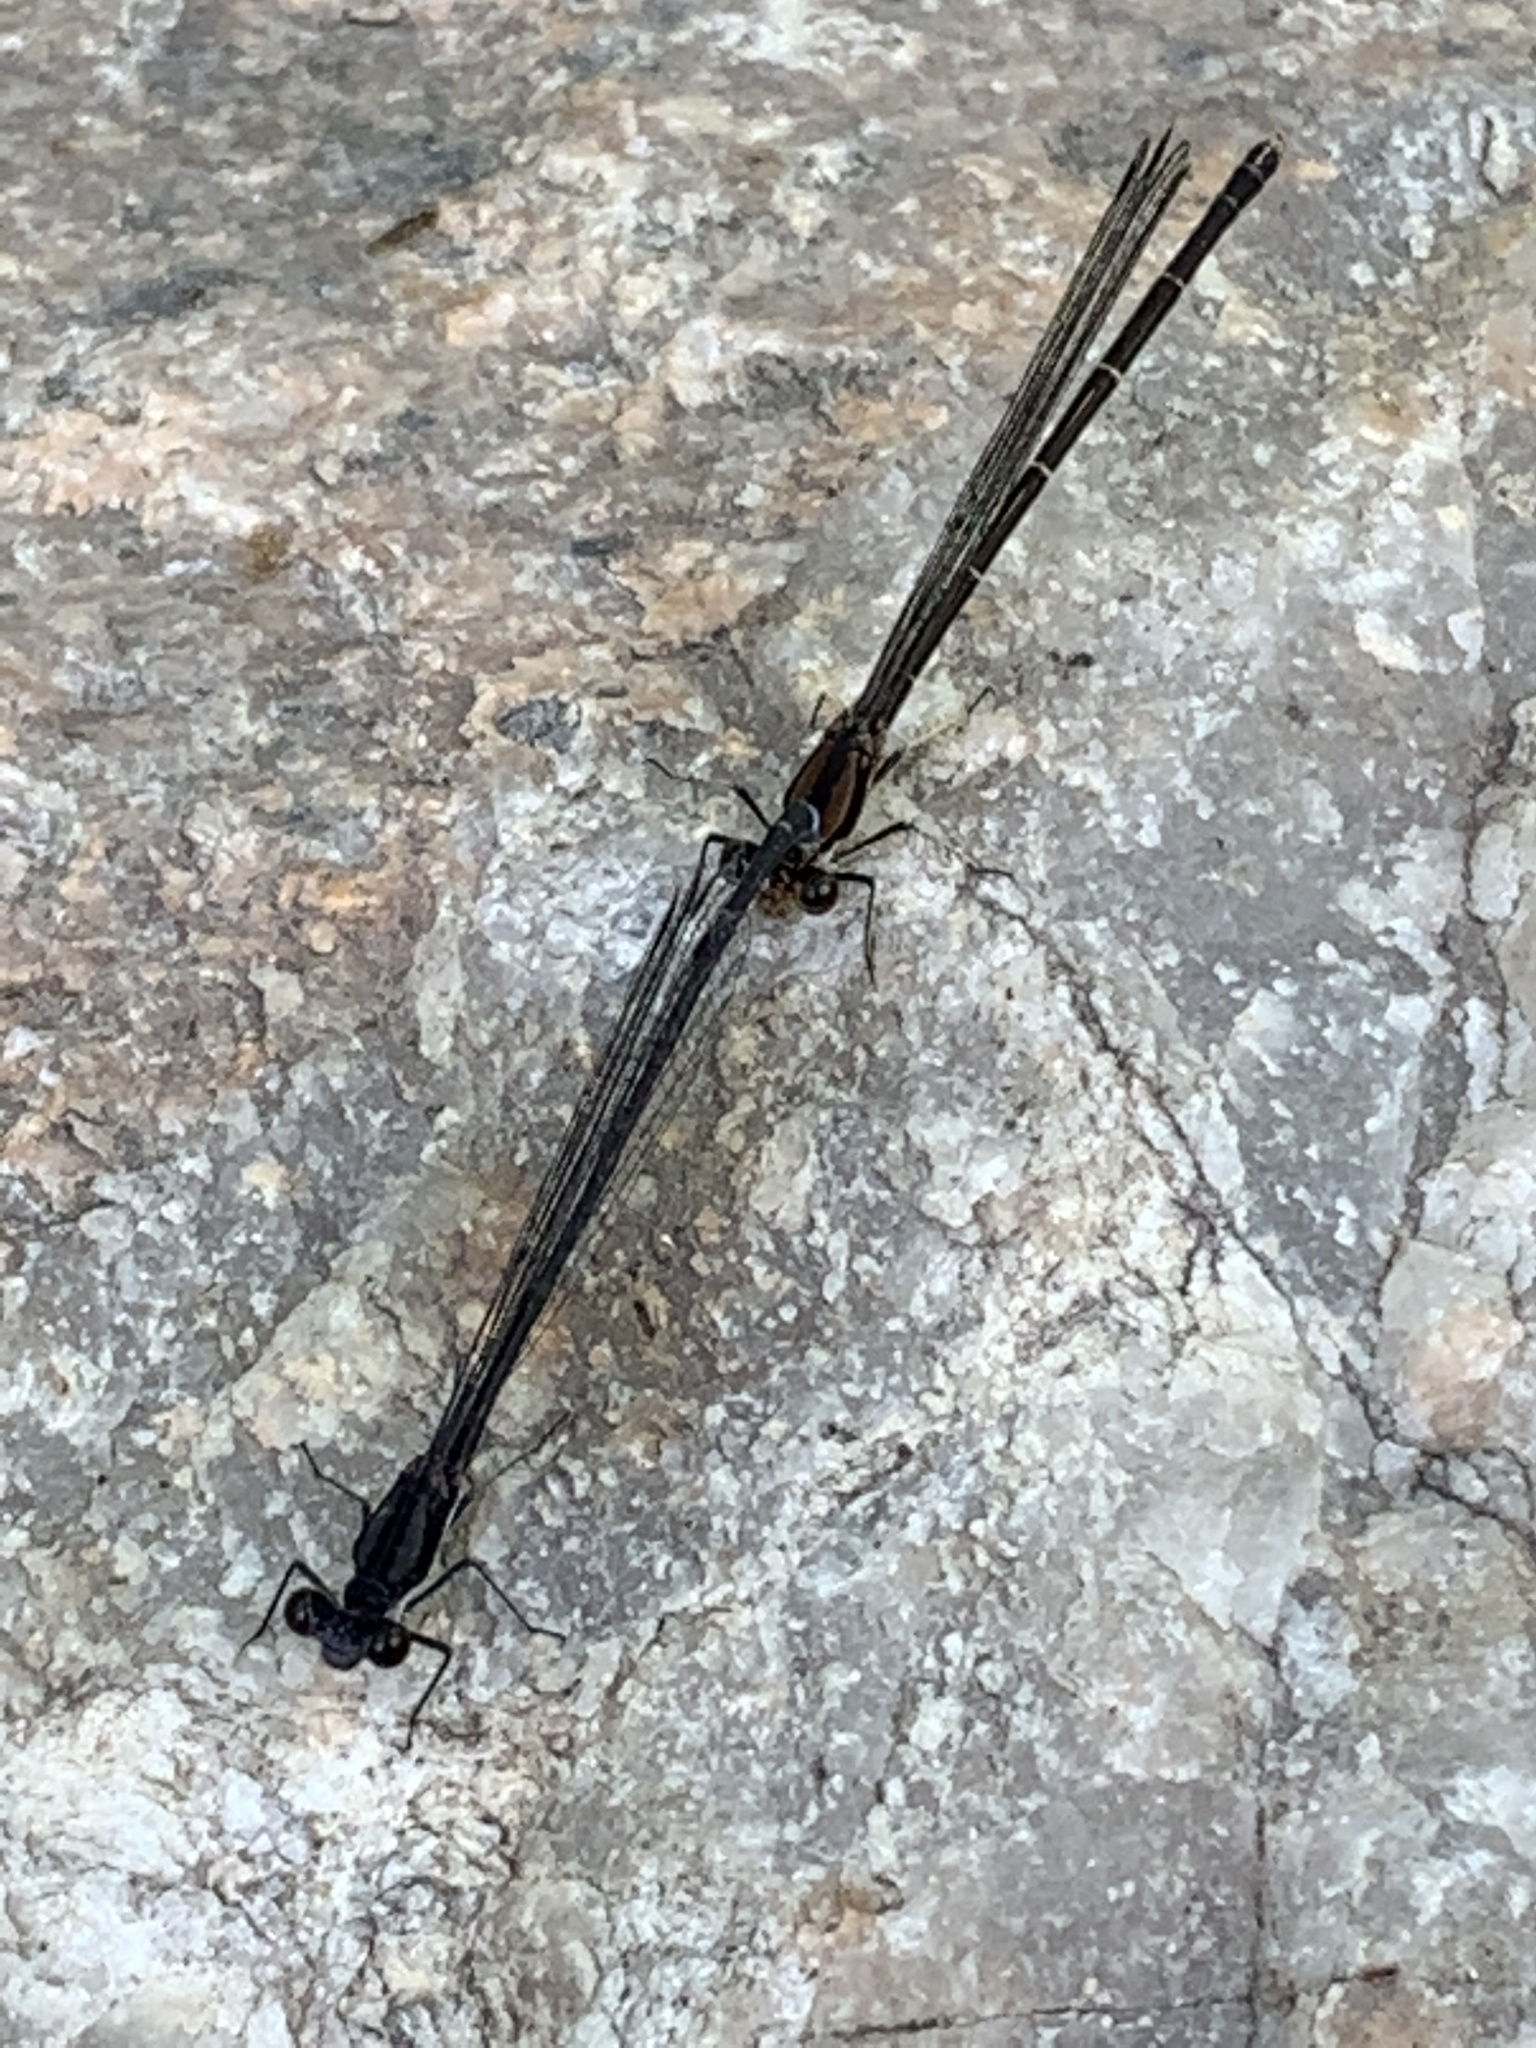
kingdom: Animalia
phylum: Arthropoda
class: Insecta
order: Odonata
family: Coenagrionidae
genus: Argia
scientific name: Argia tibialis
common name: Blue-tipped dancer
